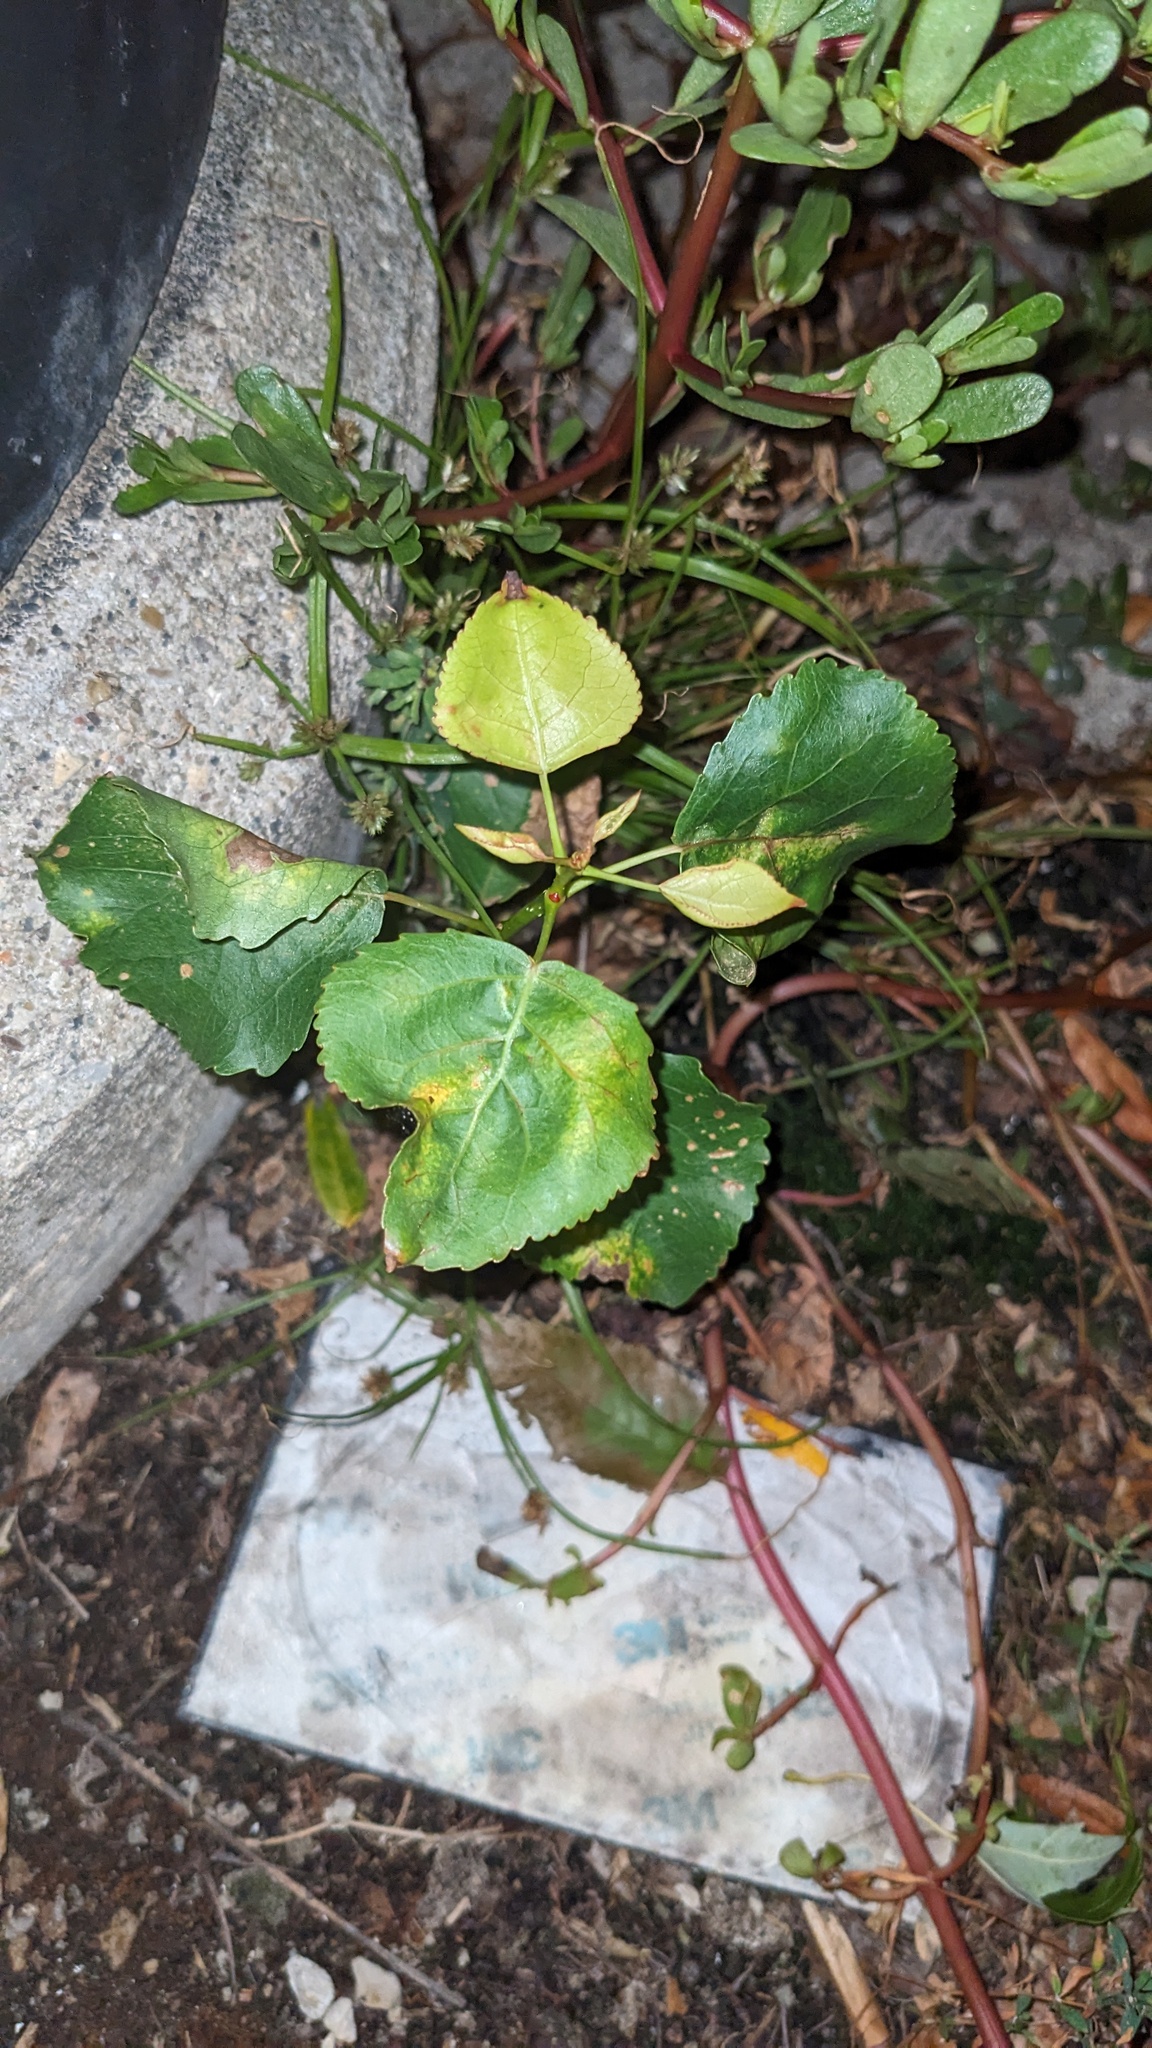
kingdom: Fungi
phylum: Ascomycota
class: Taphrinomycetes
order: Taphrinales
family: Taphrinaceae
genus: Taphrina
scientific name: Taphrina populina
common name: Poplar leaf curl
